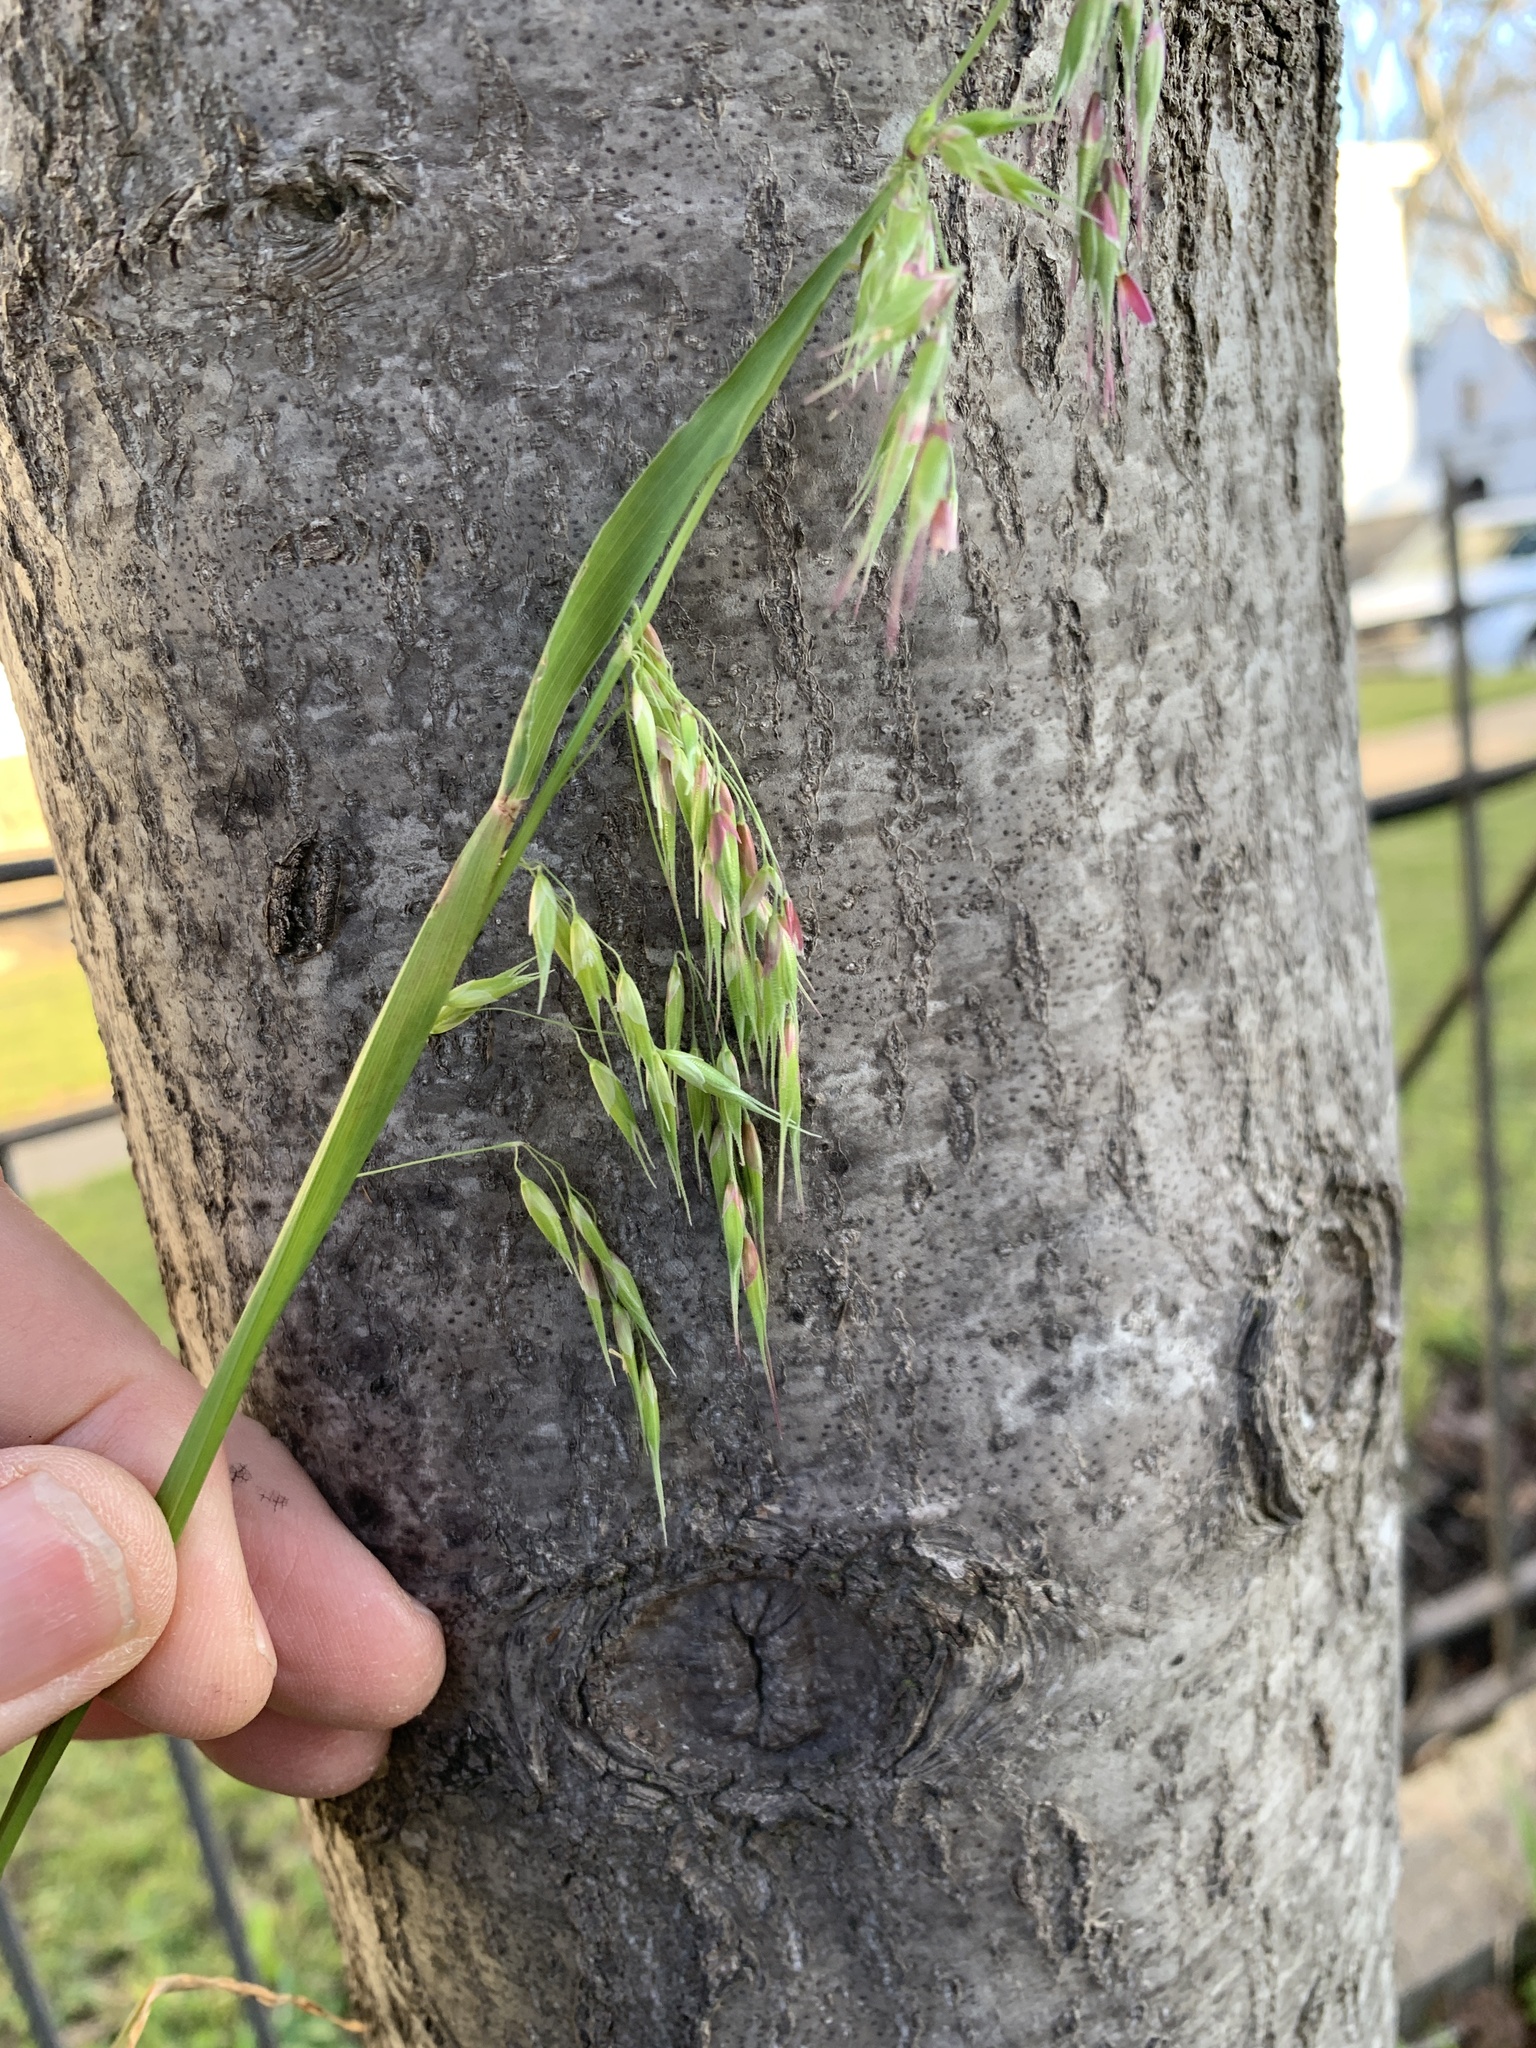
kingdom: Plantae
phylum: Tracheophyta
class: Liliopsida
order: Poales
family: Poaceae
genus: Ehrharta
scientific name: Ehrharta longiflora
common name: Longflowered veldtgrass
